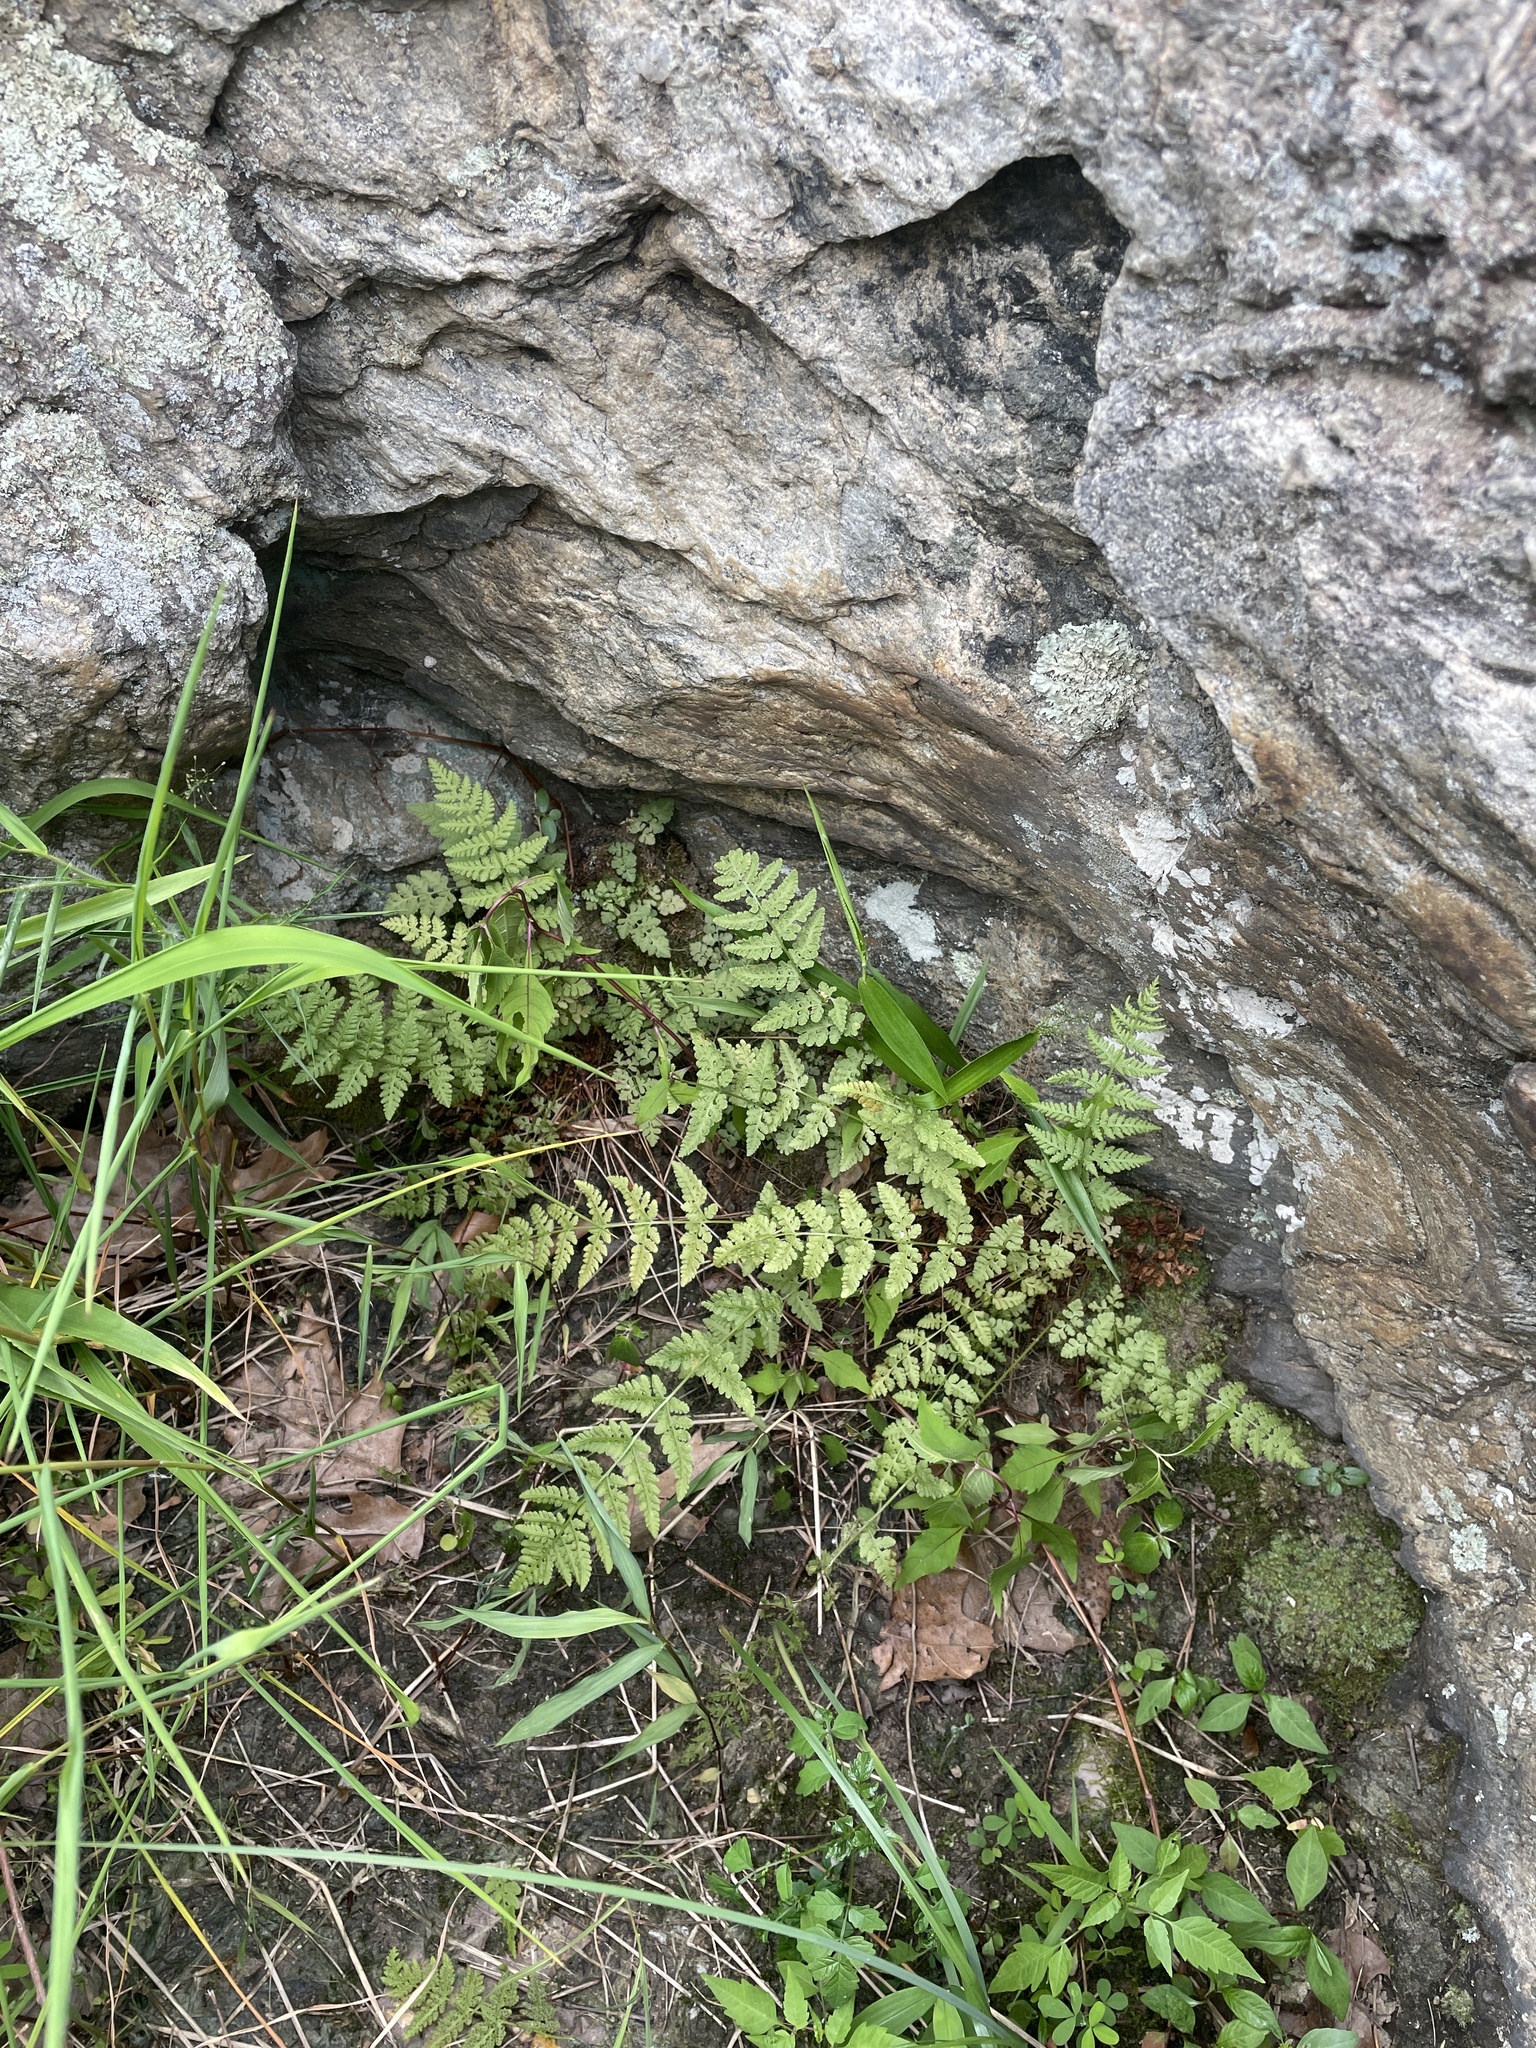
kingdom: Plantae
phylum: Tracheophyta
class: Polypodiopsida
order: Polypodiales
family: Woodsiaceae
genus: Physematium
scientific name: Physematium obtusum
